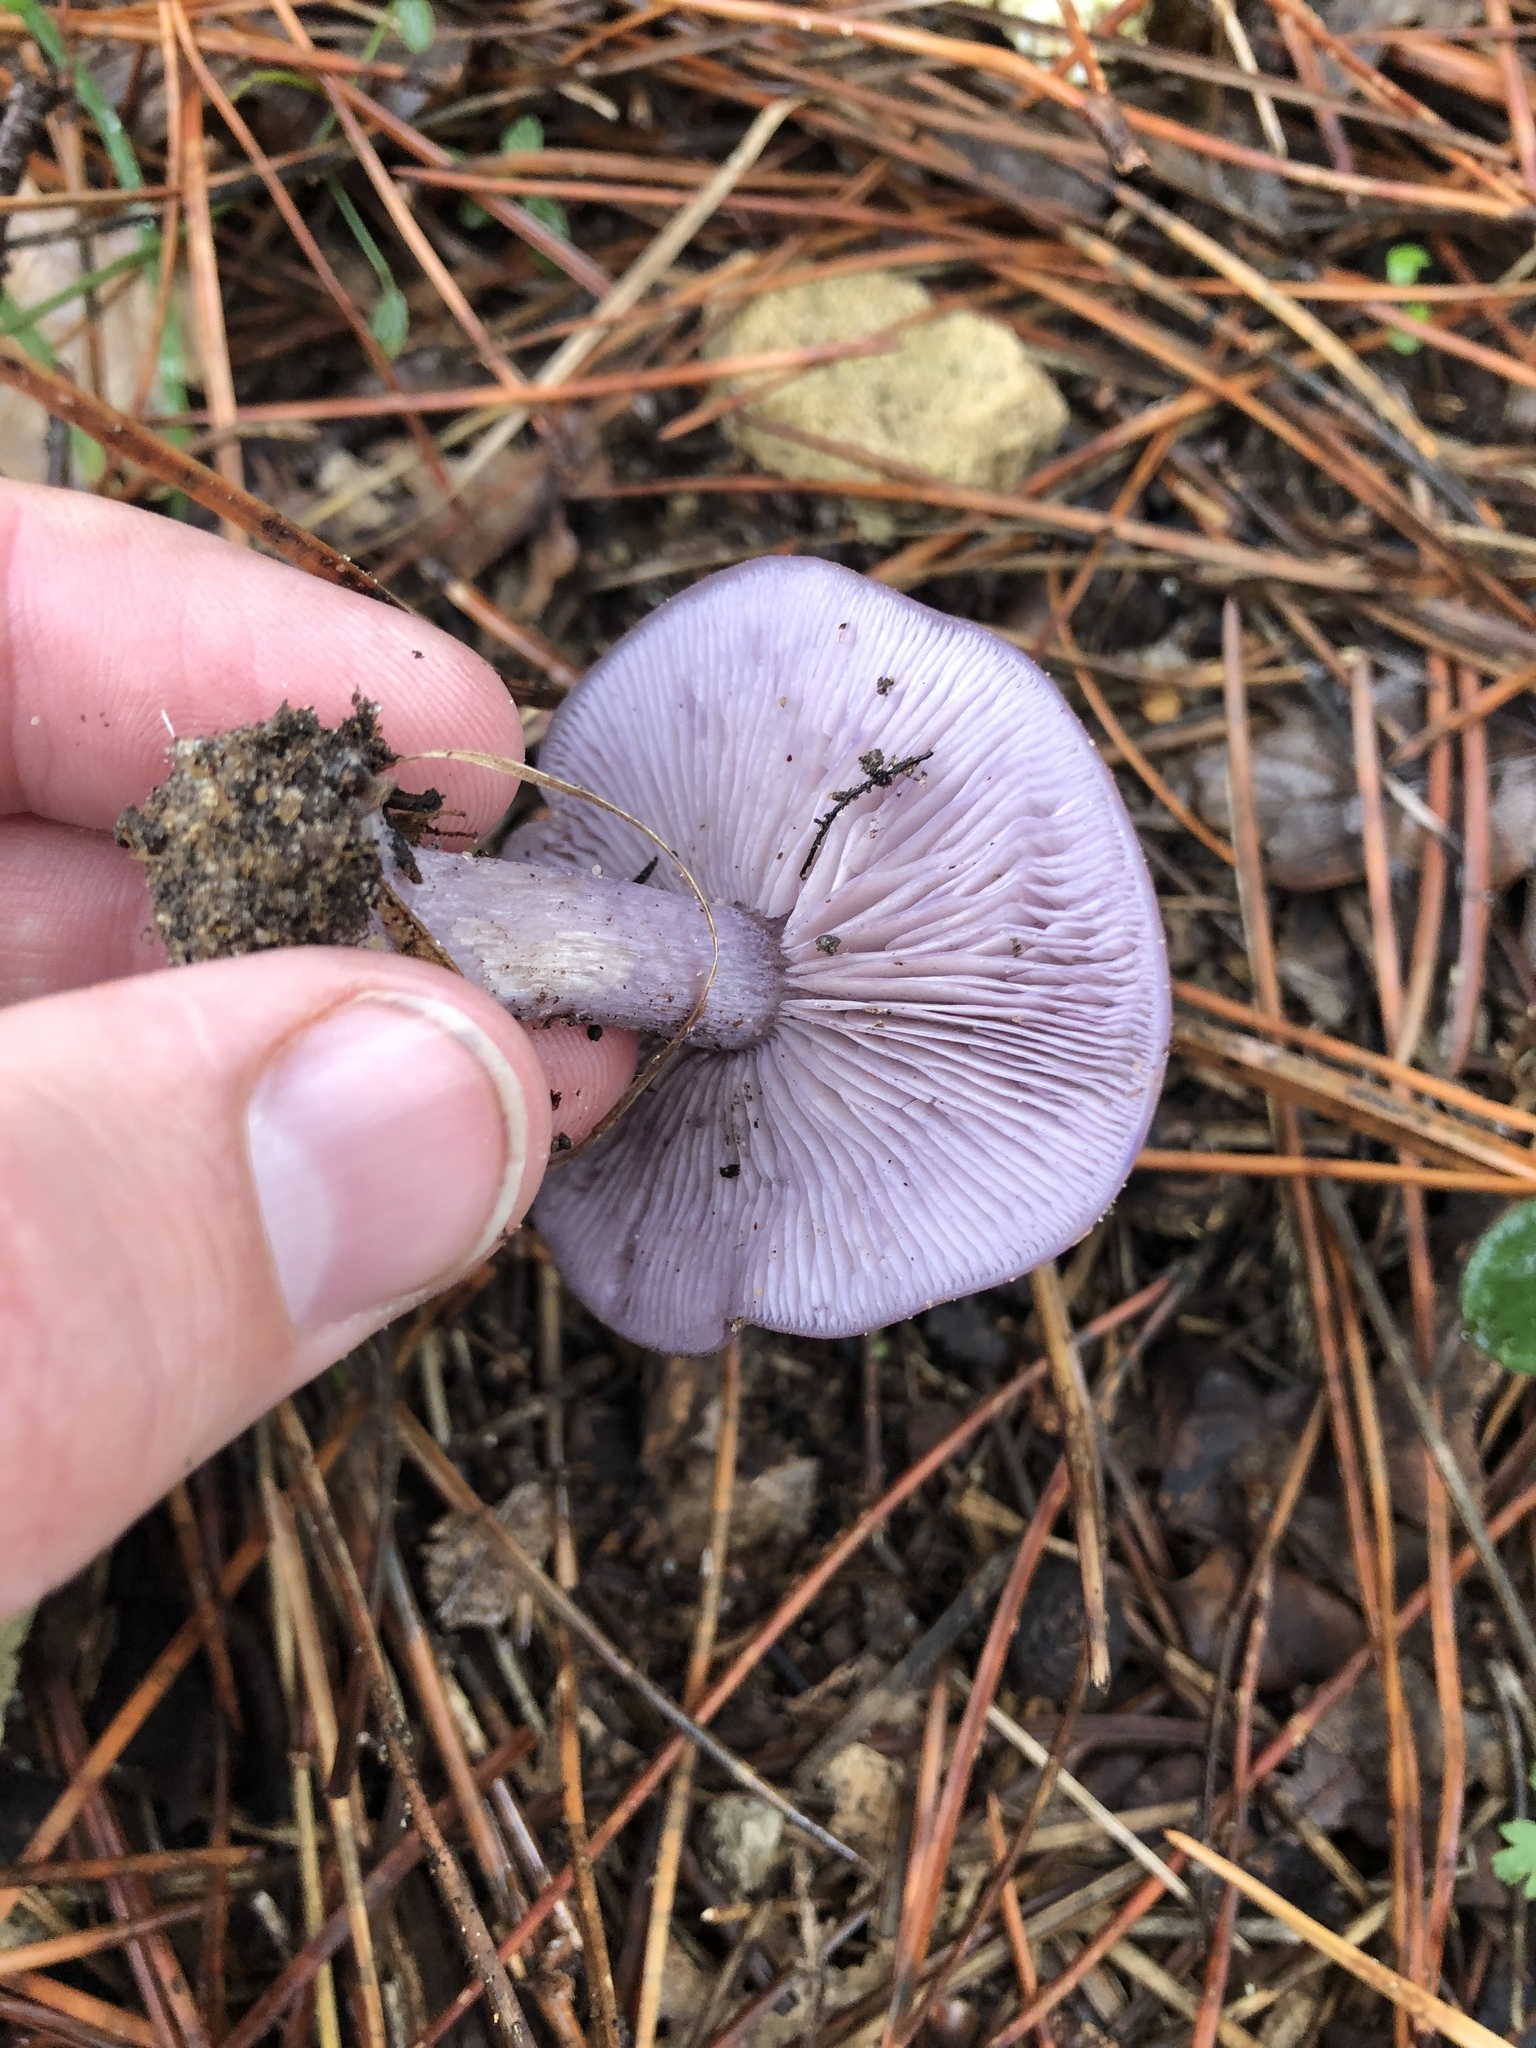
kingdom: Fungi
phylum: Basidiomycota
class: Agaricomycetes
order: Agaricales
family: Tricholomataceae
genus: Collybia
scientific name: Collybia
